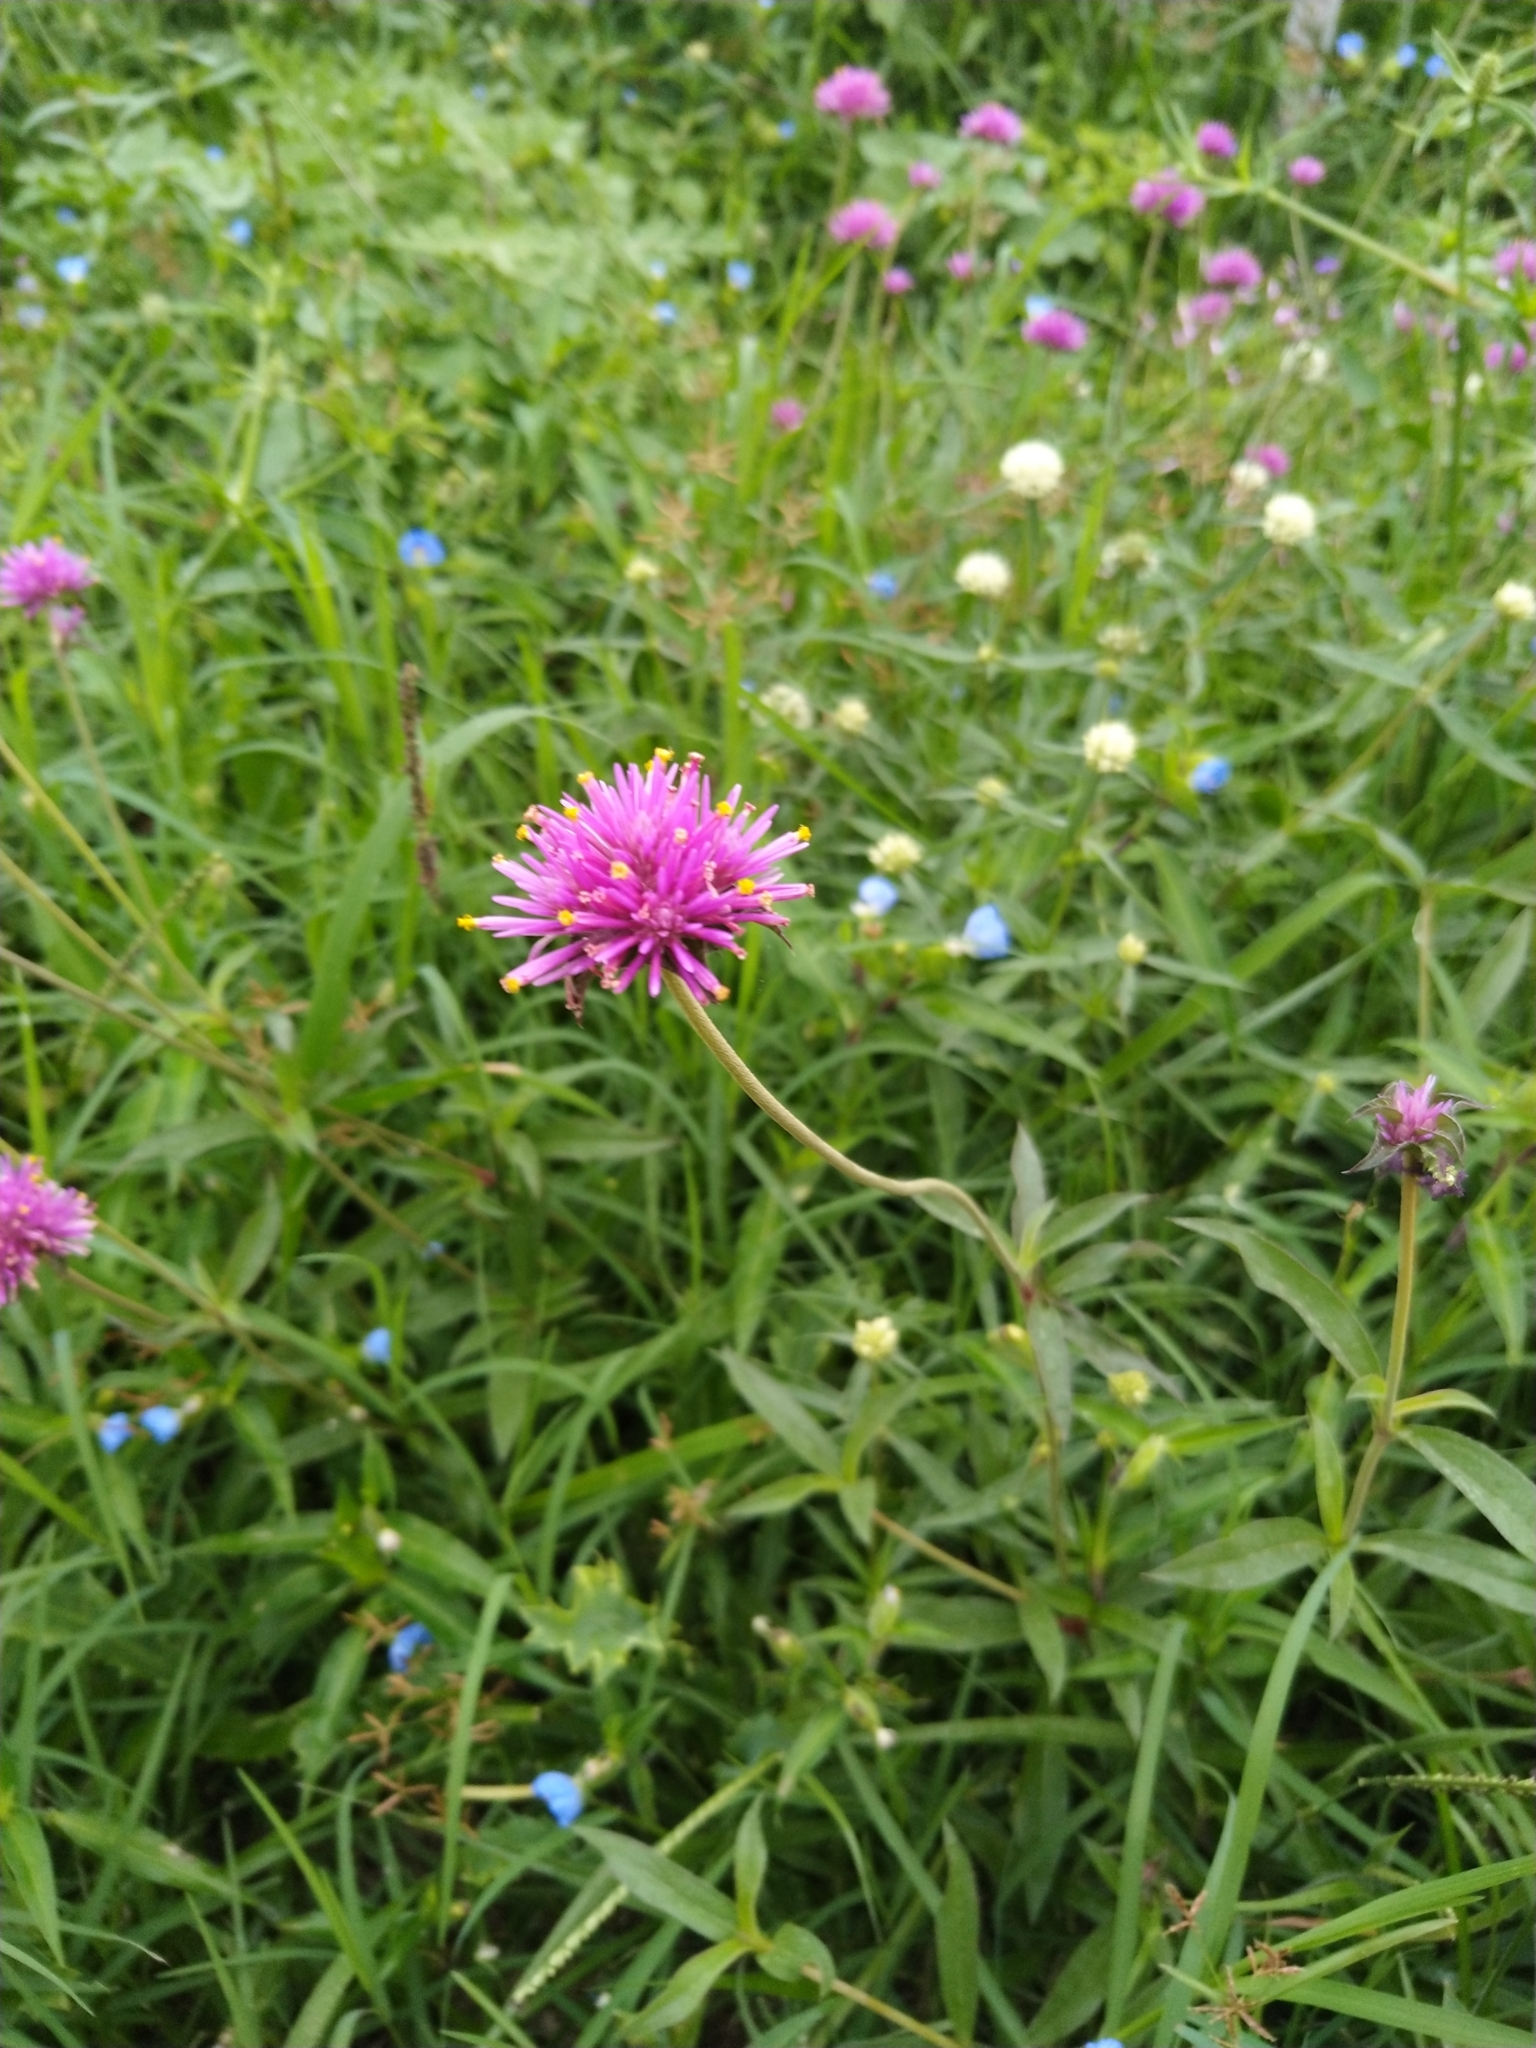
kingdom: Plantae
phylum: Tracheophyta
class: Magnoliopsida
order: Caryophyllales
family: Amaranthaceae
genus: Gomphrena
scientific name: Gomphrena pulchella
